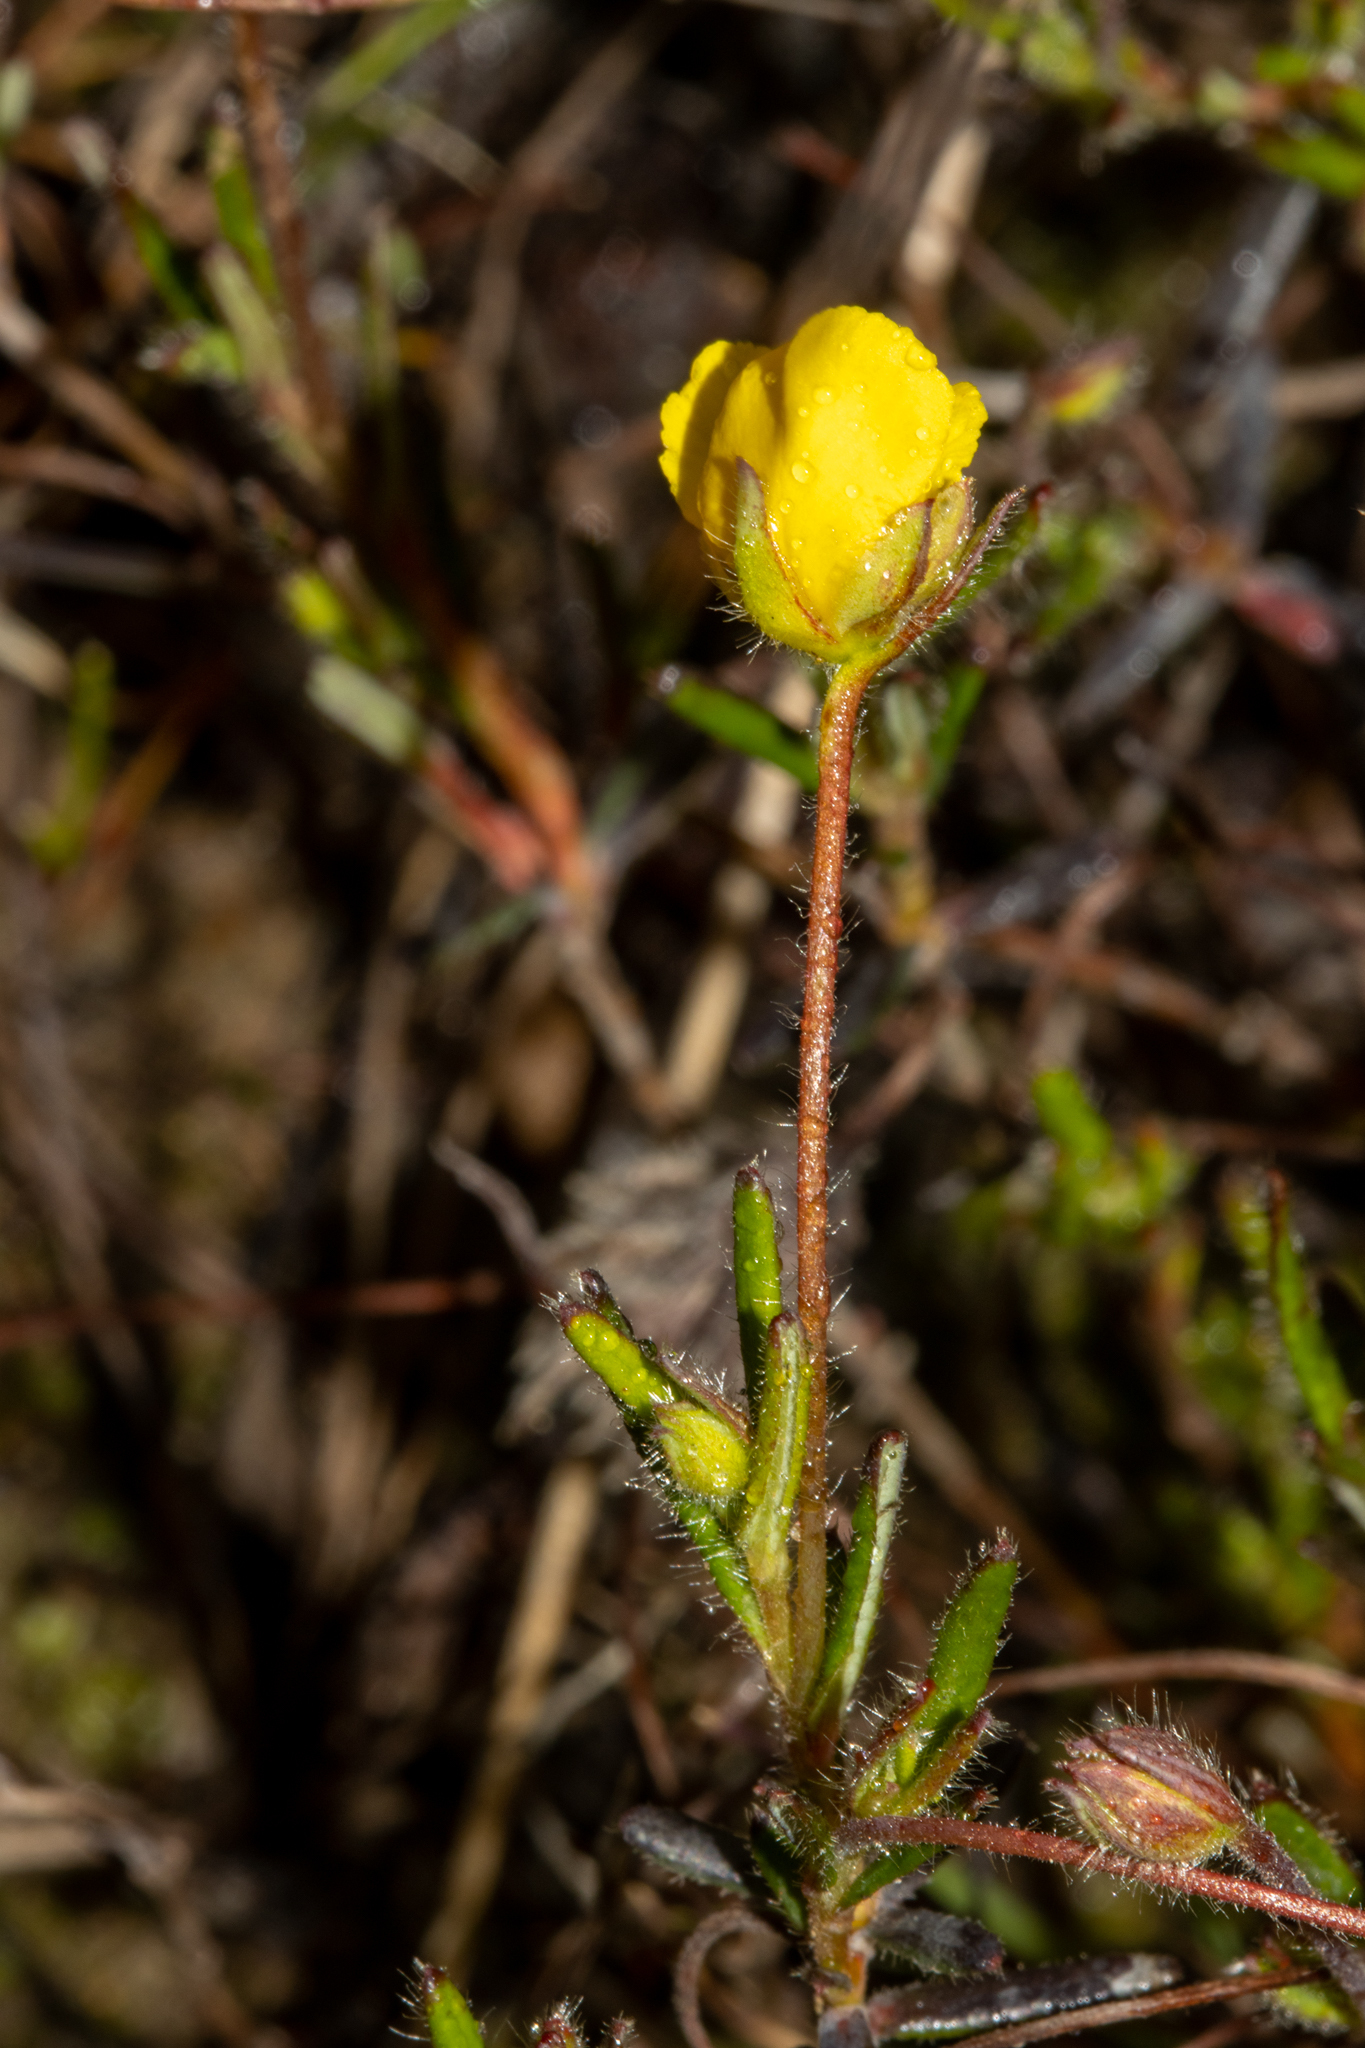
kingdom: Plantae
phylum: Tracheophyta
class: Magnoliopsida
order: Dilleniales
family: Dilleniaceae
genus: Hibbertia
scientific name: Hibbertia diamesogenos
